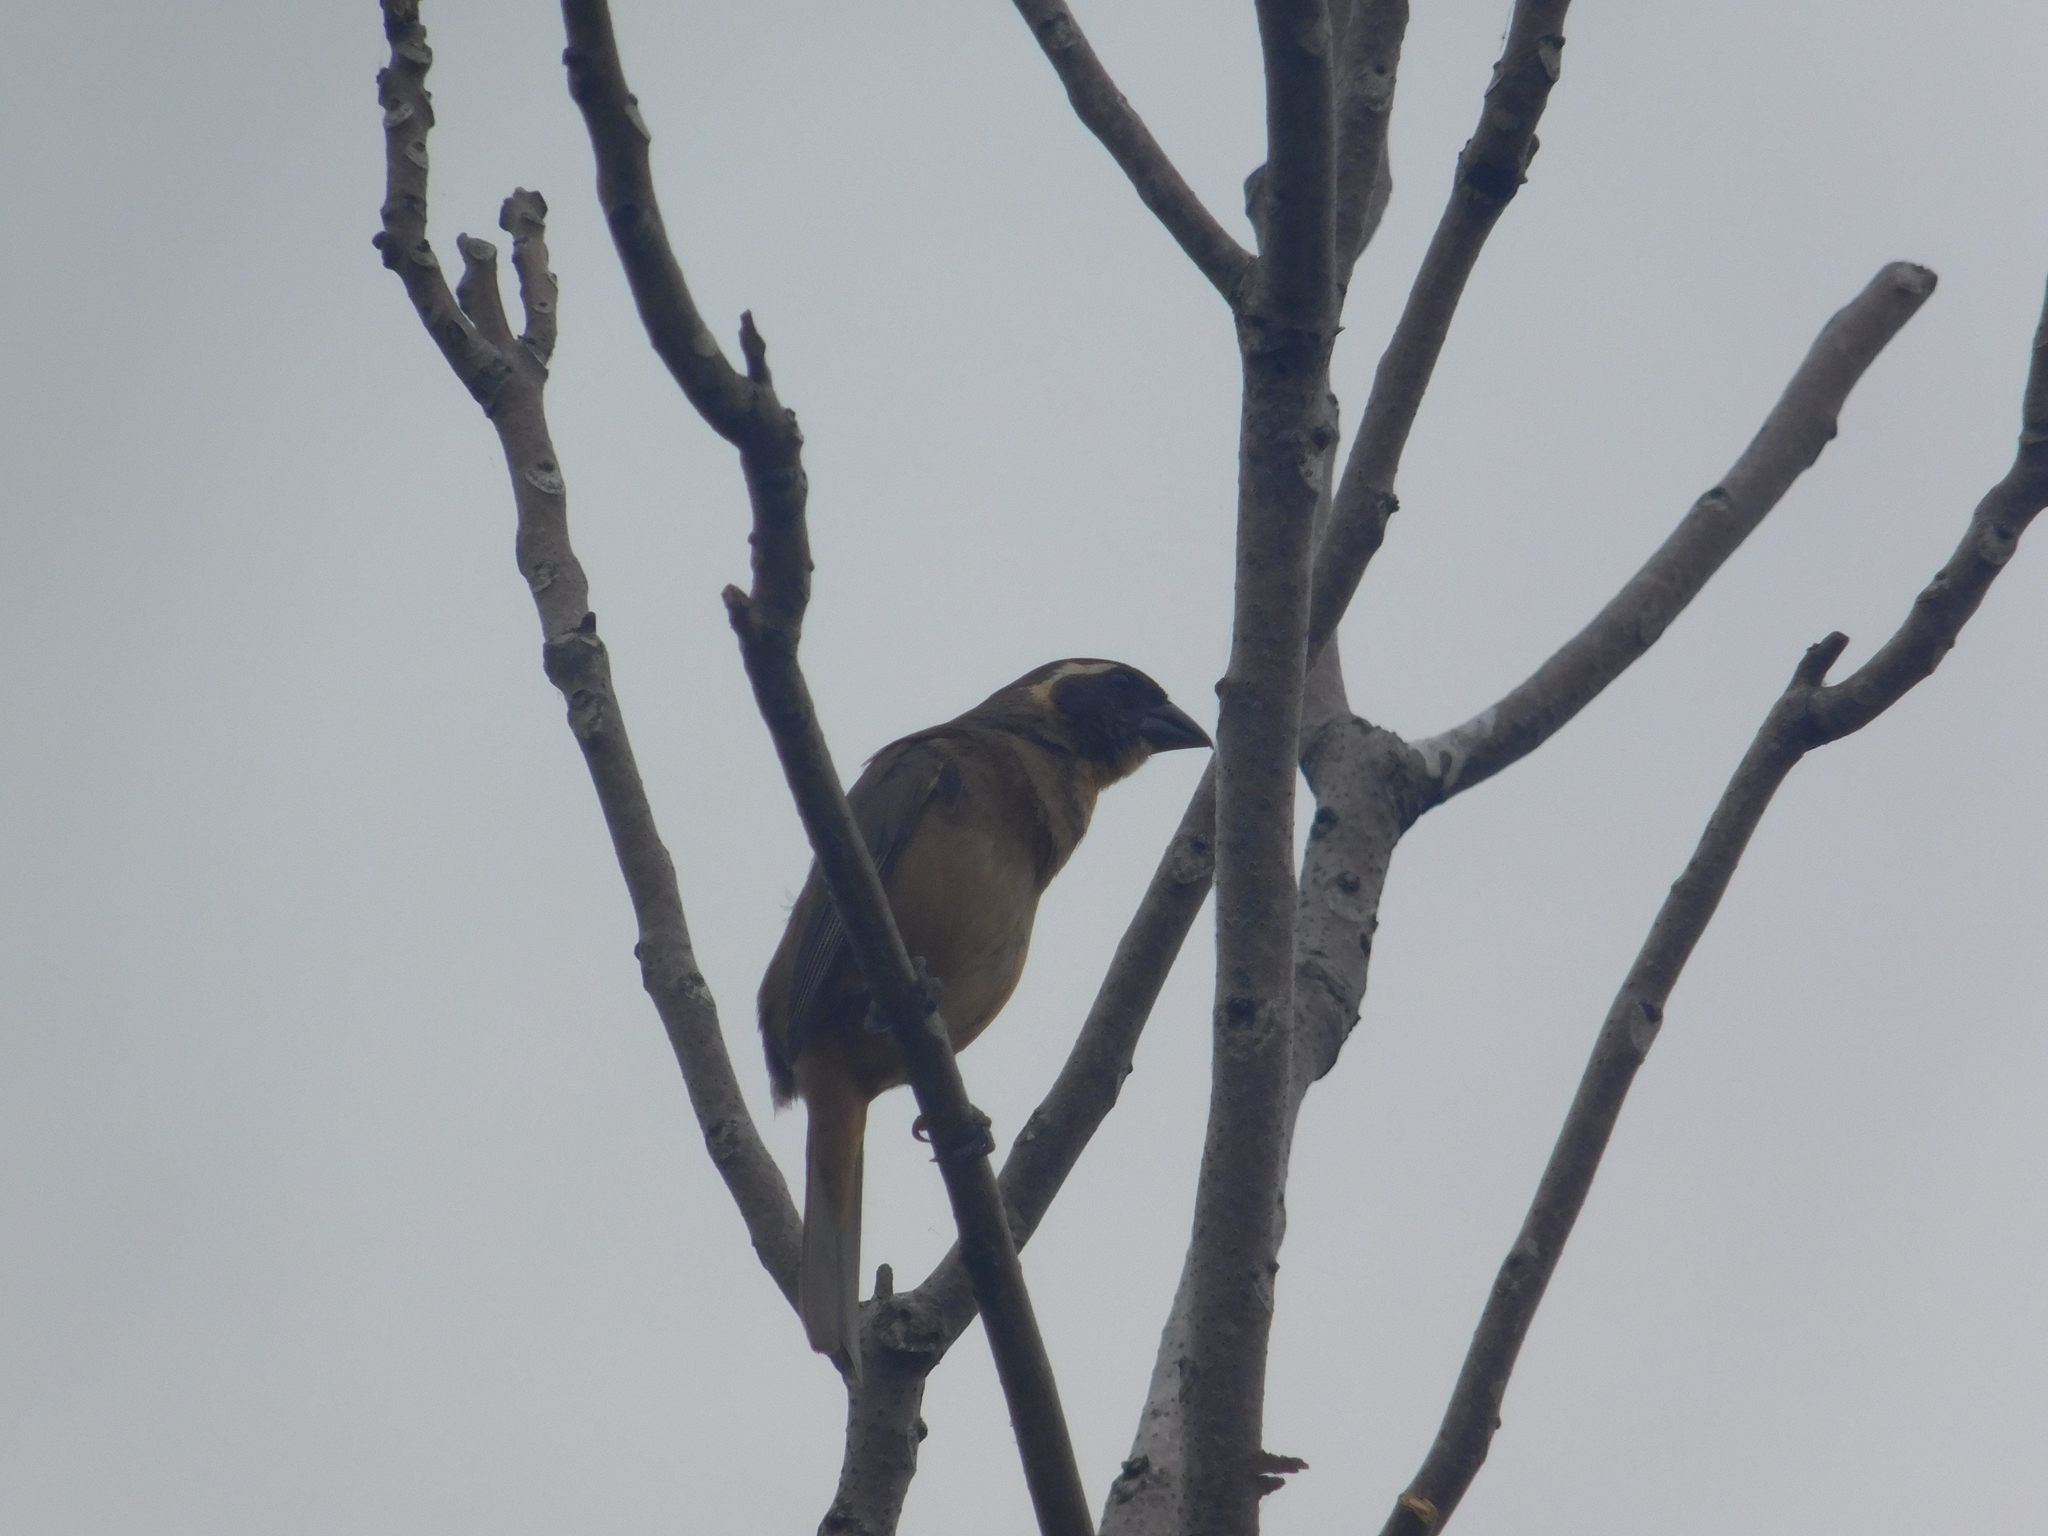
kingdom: Animalia
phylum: Chordata
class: Aves
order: Passeriformes
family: Thraupidae
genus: Saltator
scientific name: Saltator aurantiirostris
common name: Golden-billed saltator
